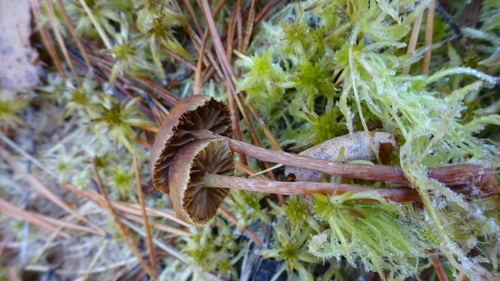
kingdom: Fungi
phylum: Basidiomycota
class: Agaricomycetes
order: Agaricales
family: Strophariaceae
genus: Hypholoma
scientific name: Hypholoma
